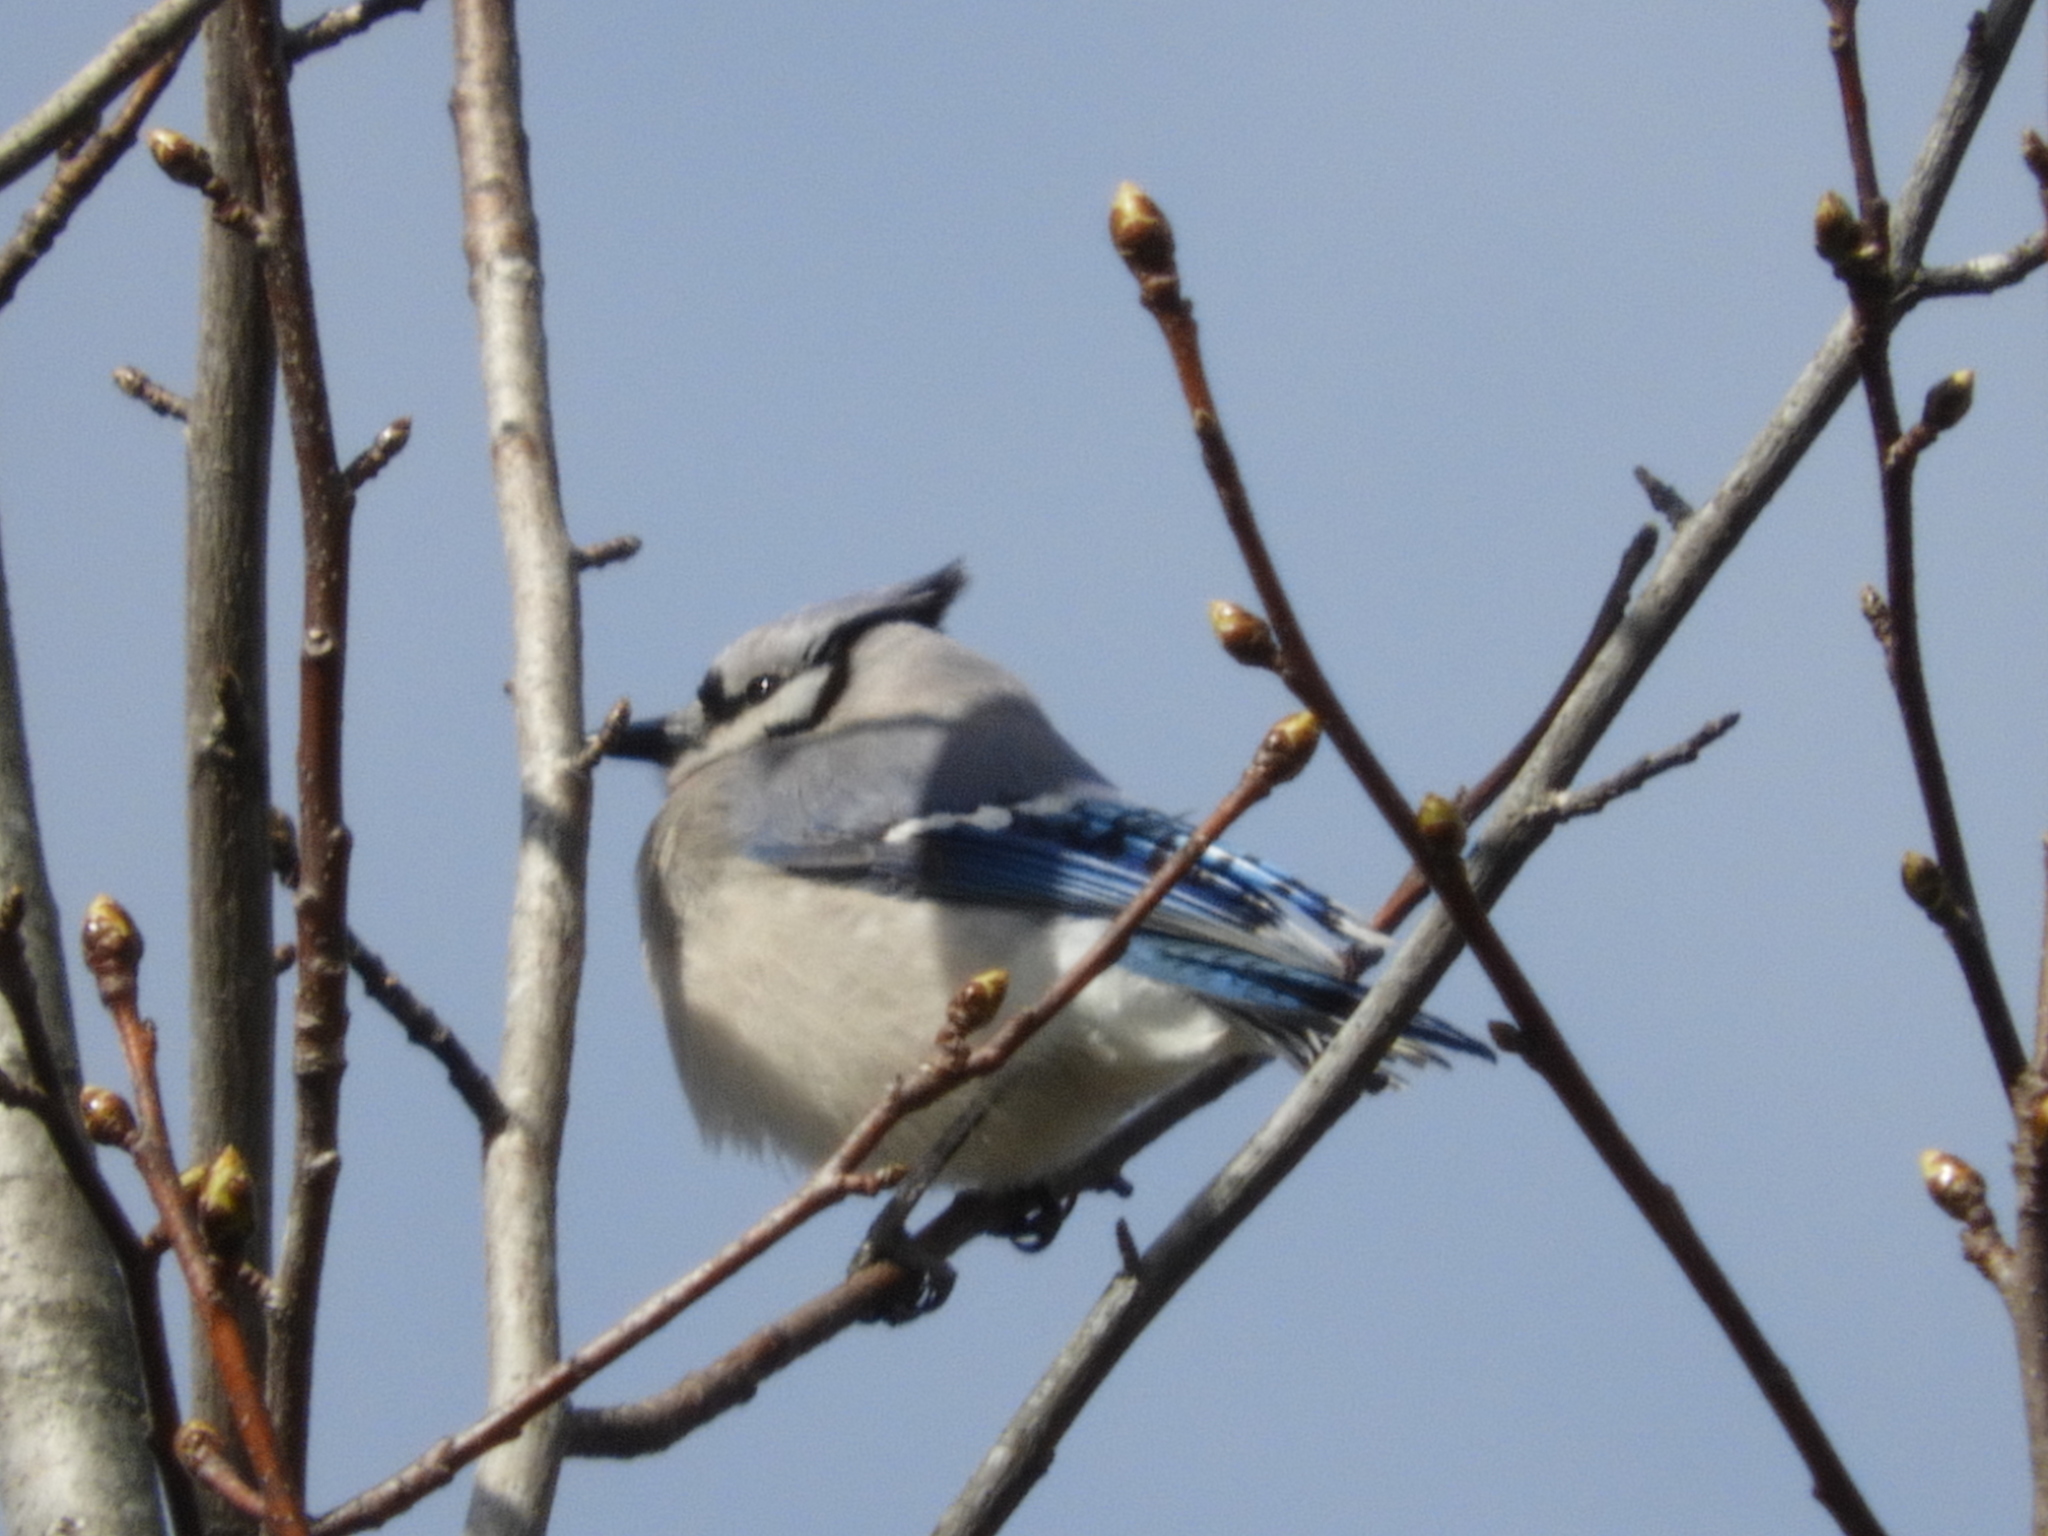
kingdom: Animalia
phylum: Chordata
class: Aves
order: Passeriformes
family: Corvidae
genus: Cyanocitta
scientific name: Cyanocitta cristata
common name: Blue jay
